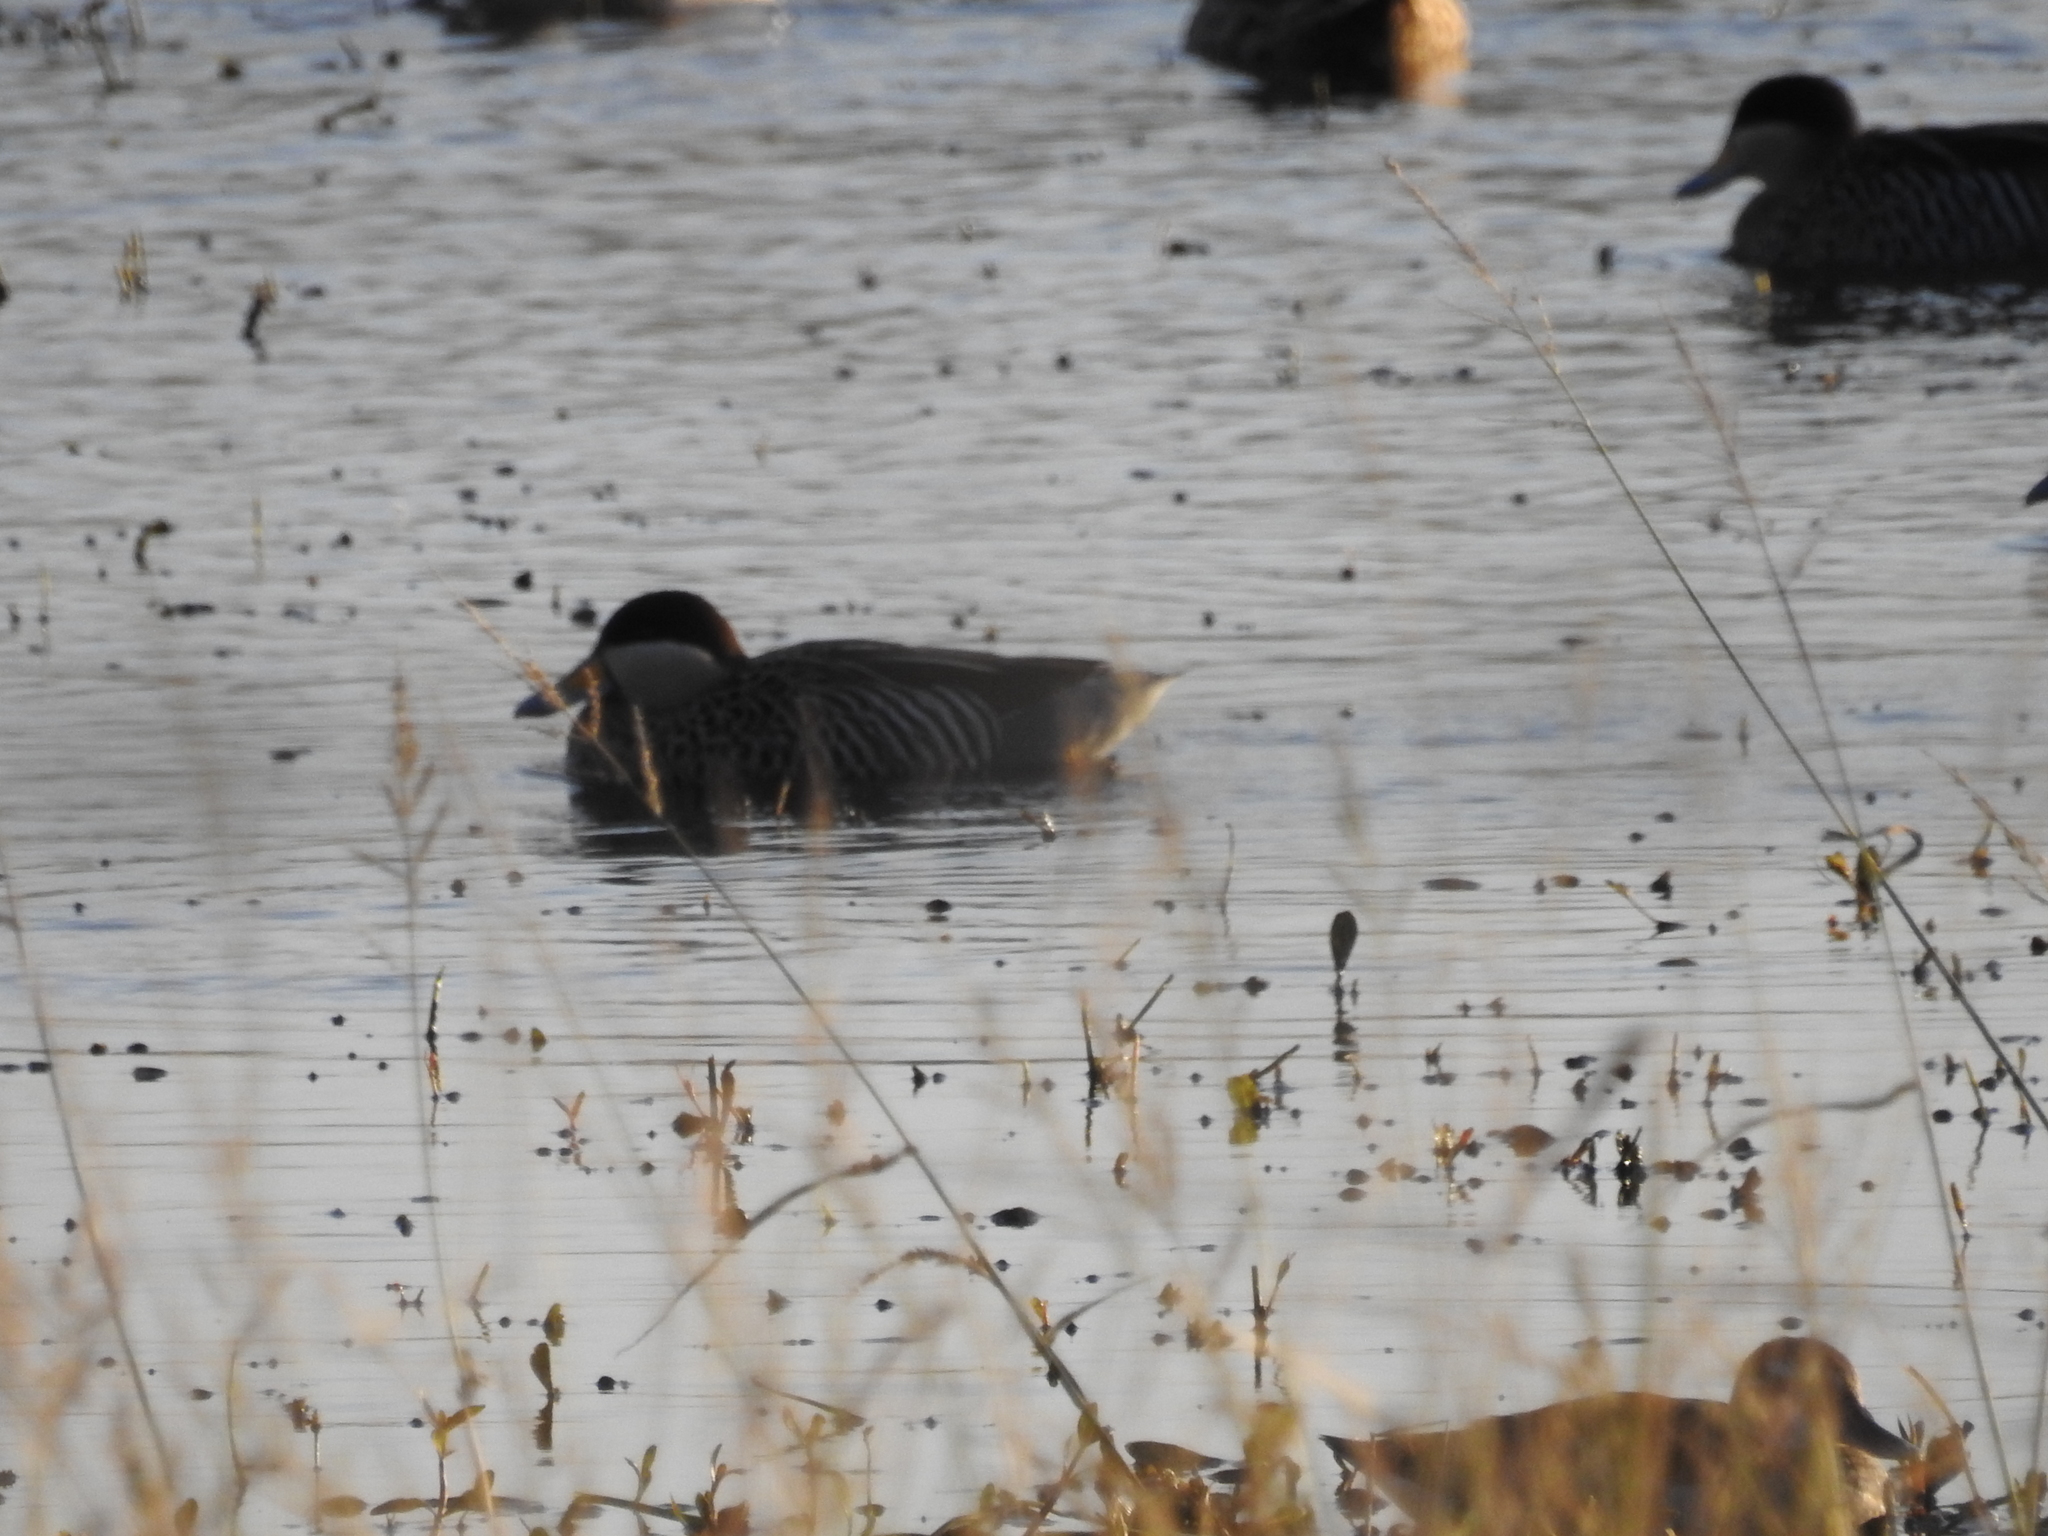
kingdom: Animalia
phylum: Chordata
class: Aves
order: Anseriformes
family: Anatidae
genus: Spatula
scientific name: Spatula versicolor
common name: Silver teal
